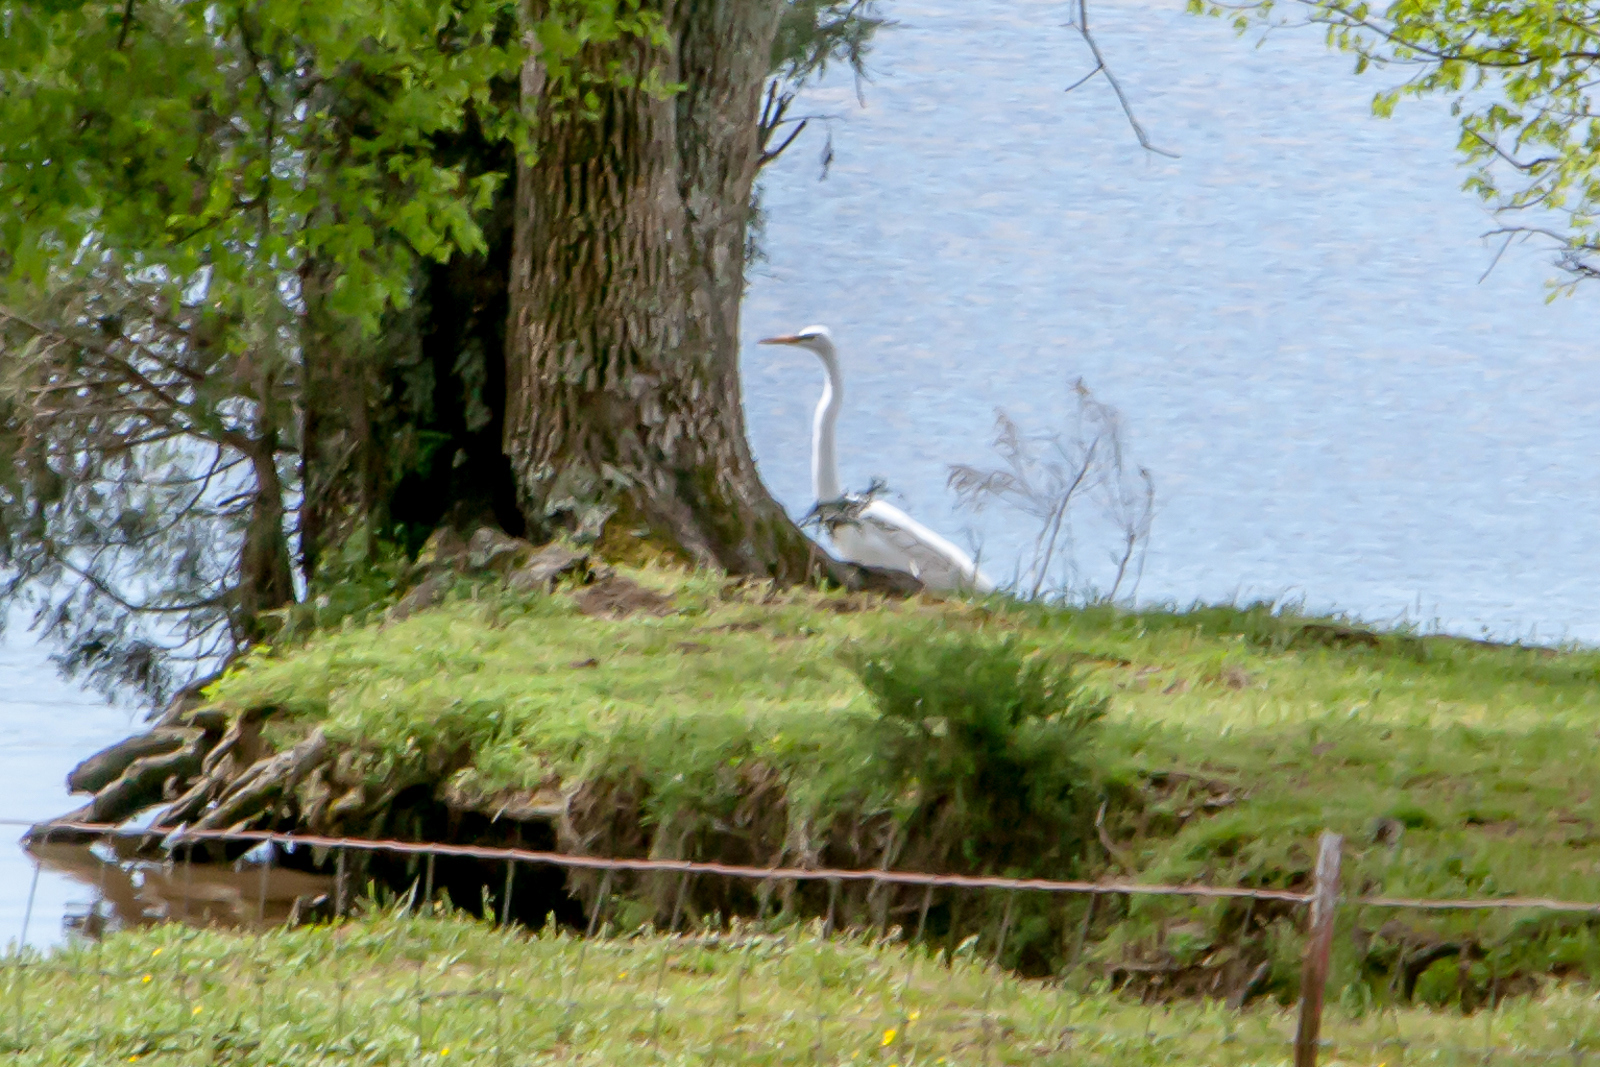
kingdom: Animalia
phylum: Chordata
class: Aves
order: Pelecaniformes
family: Ardeidae
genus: Ardea
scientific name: Ardea alba
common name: Great egret
